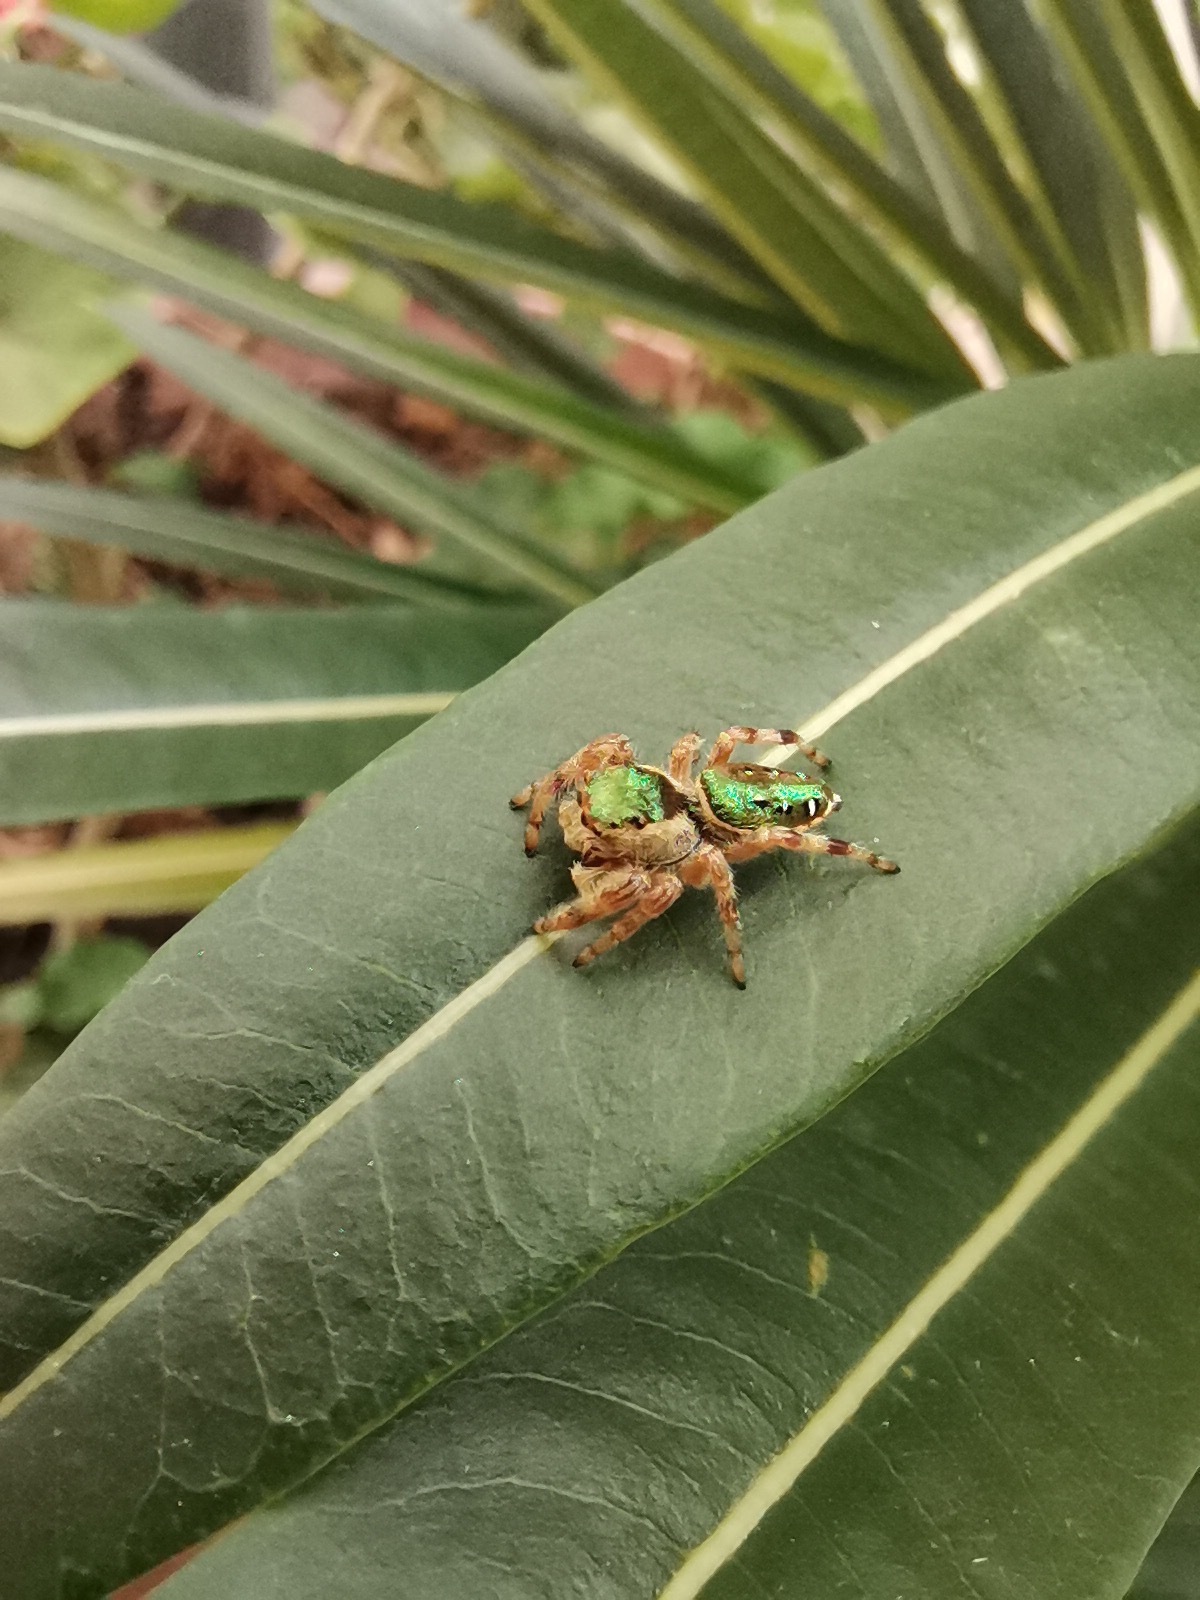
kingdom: Animalia
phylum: Arthropoda
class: Arachnida
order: Araneae
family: Salticidae
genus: Paraphidippus
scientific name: Paraphidippus aurantius
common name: Jumping spiders
